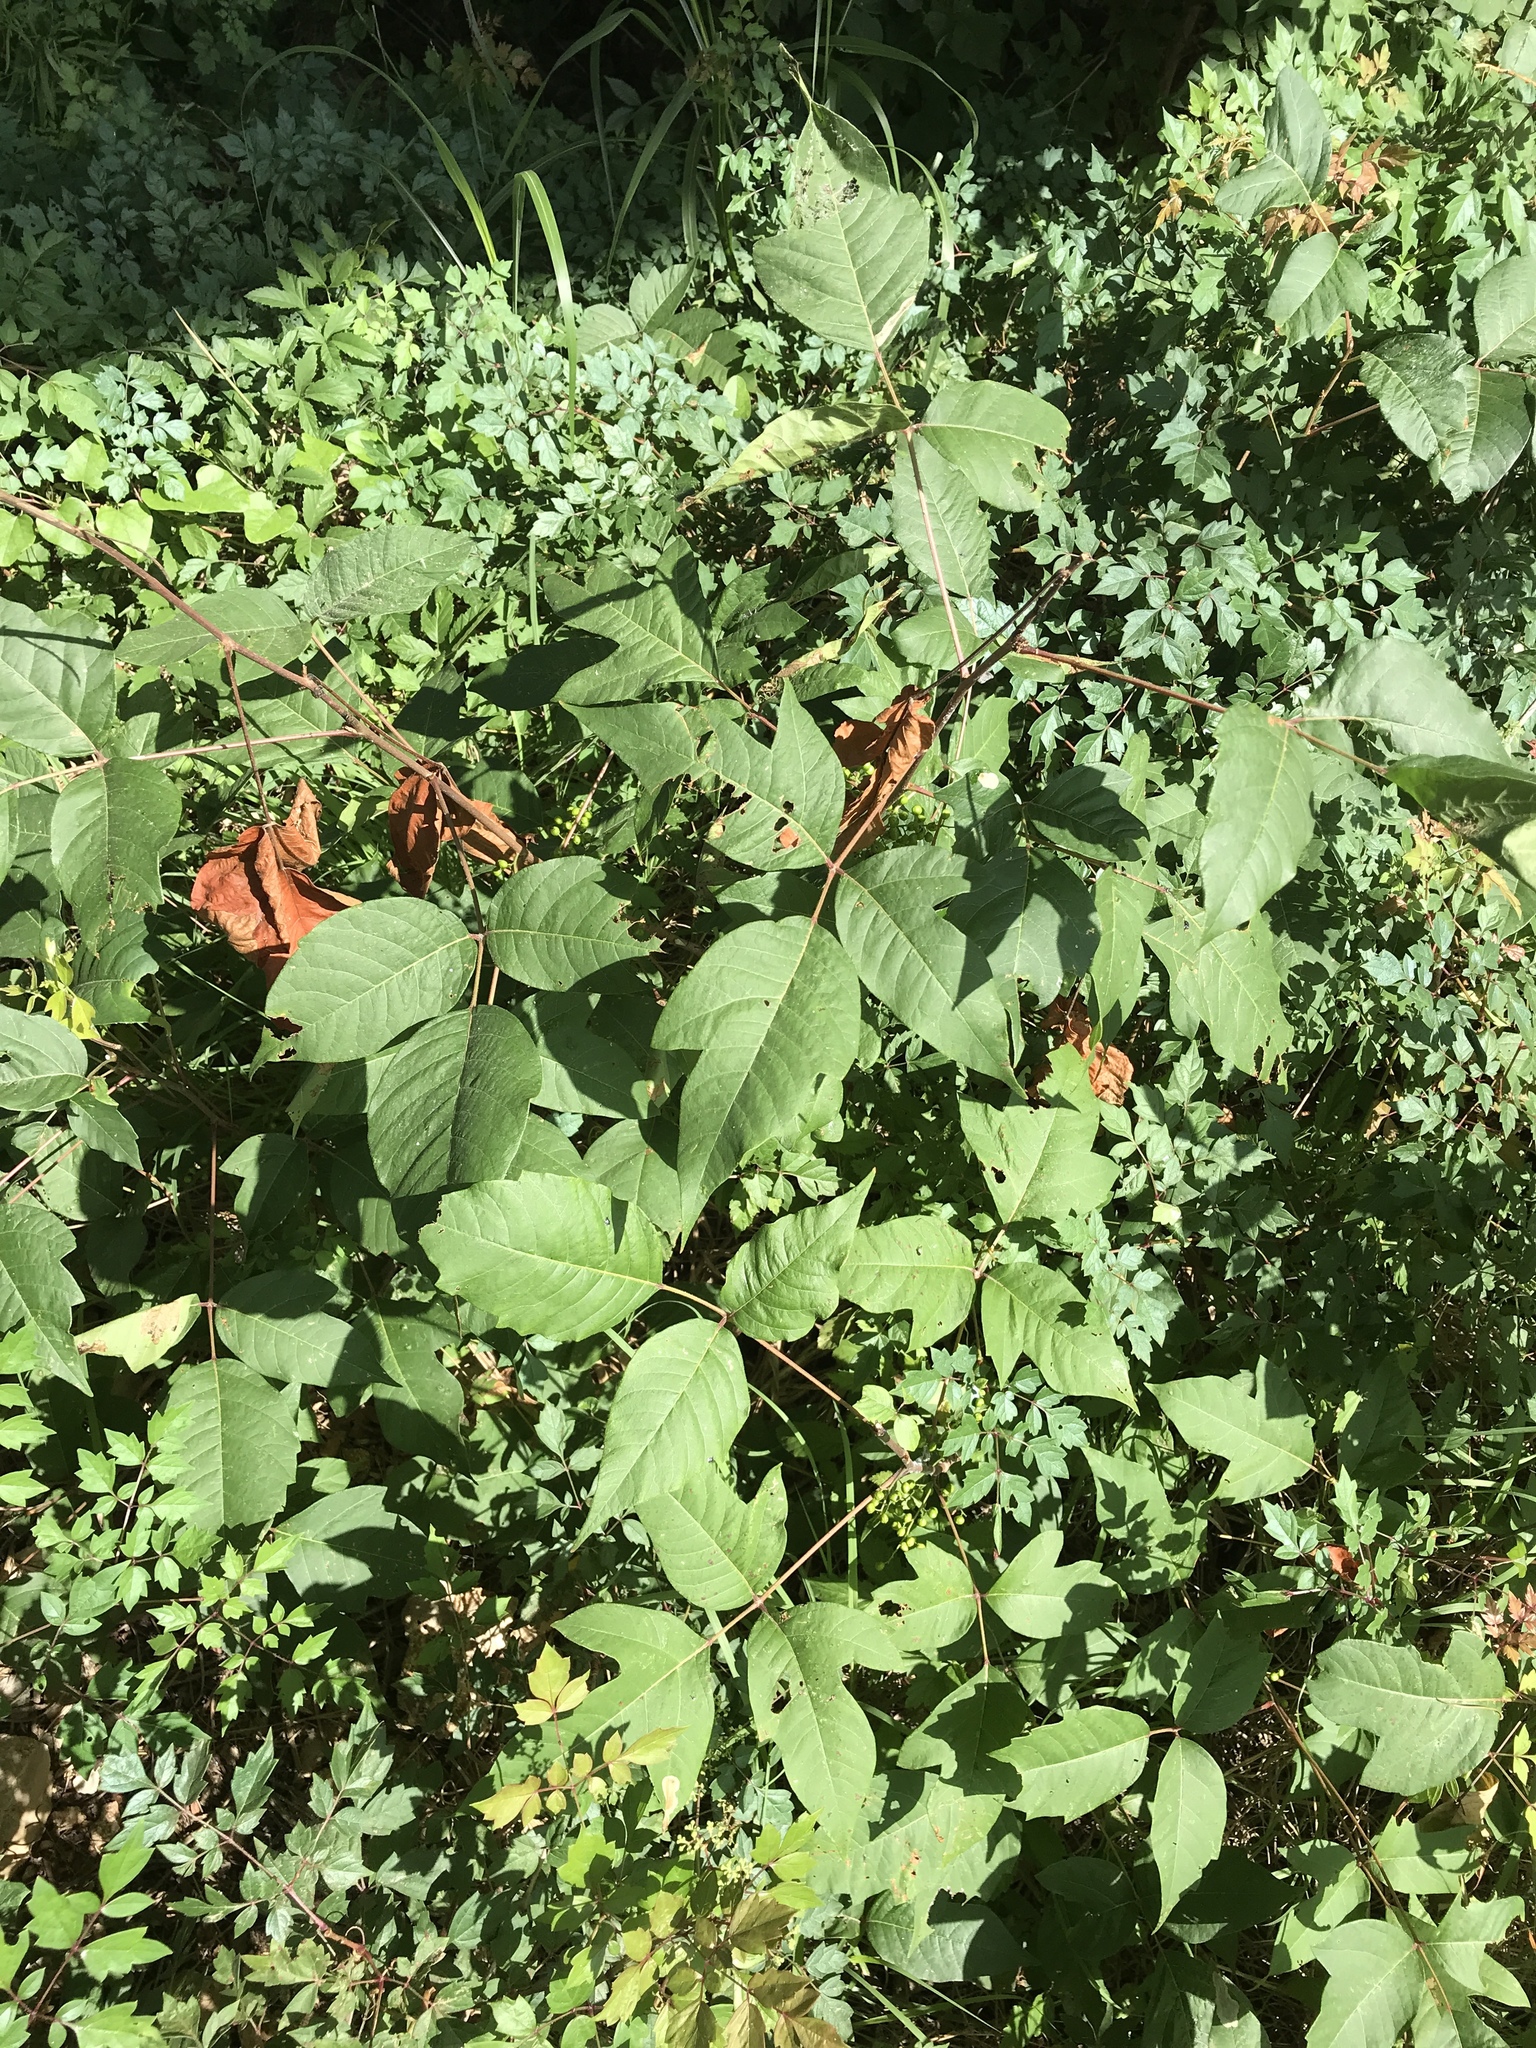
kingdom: Plantae
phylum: Tracheophyta
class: Magnoliopsida
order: Sapindales
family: Anacardiaceae
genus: Toxicodendron
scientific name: Toxicodendron radicans
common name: Poison ivy
